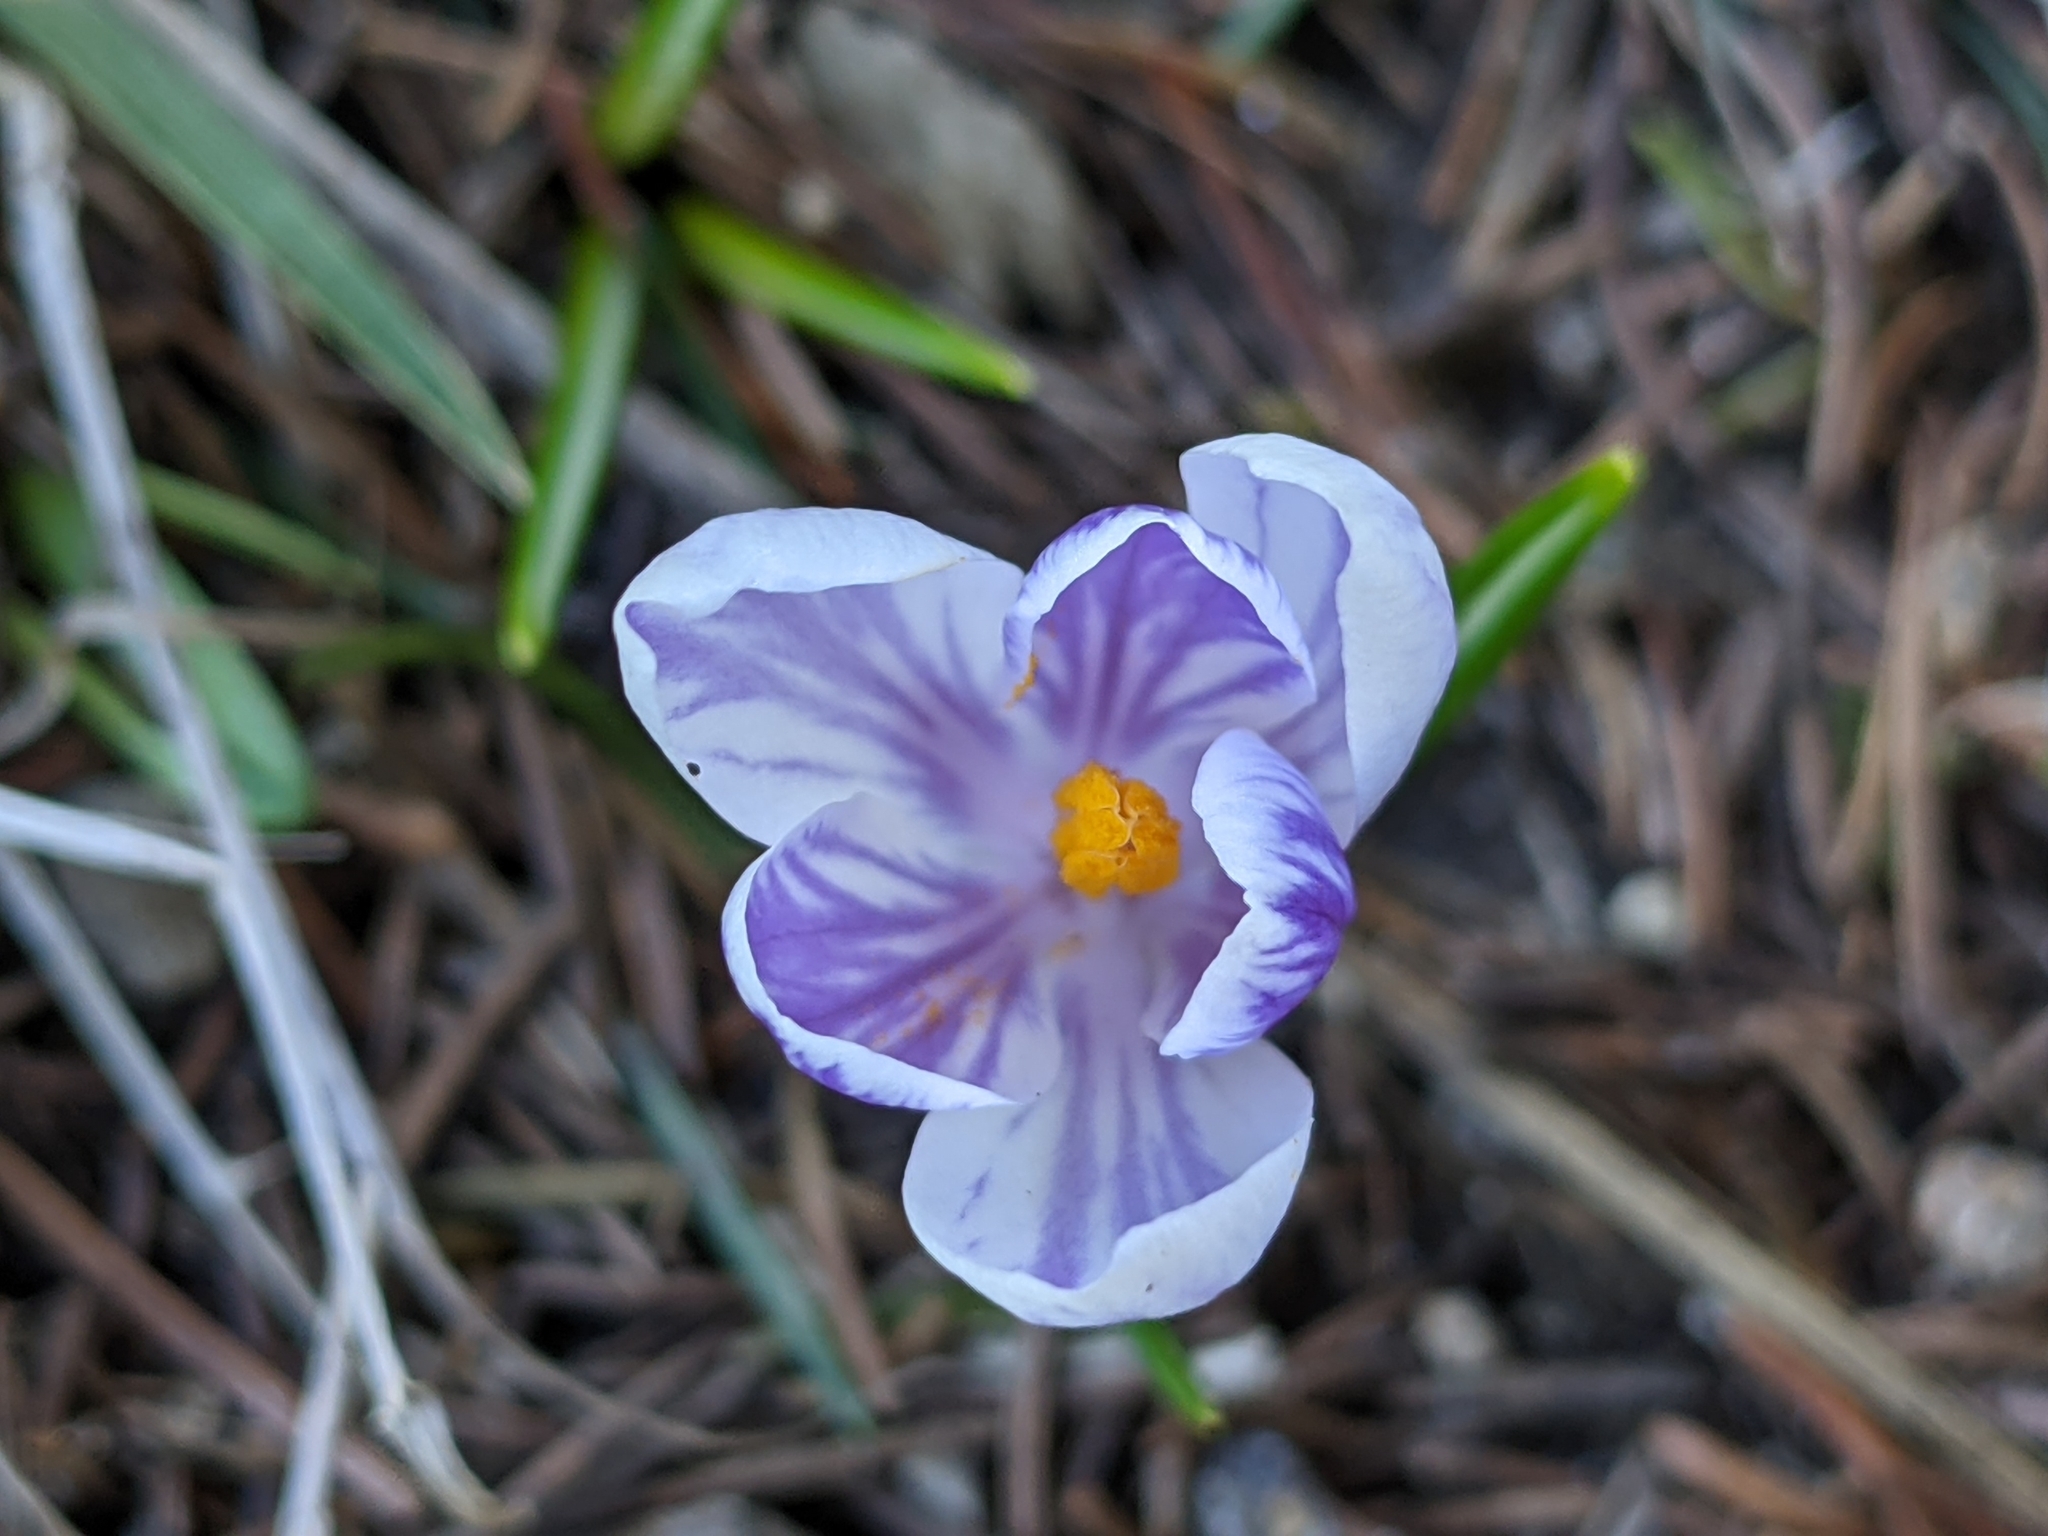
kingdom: Plantae
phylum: Tracheophyta
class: Liliopsida
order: Asparagales
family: Iridaceae
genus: Crocus
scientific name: Crocus vernus
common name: Spring crocus
